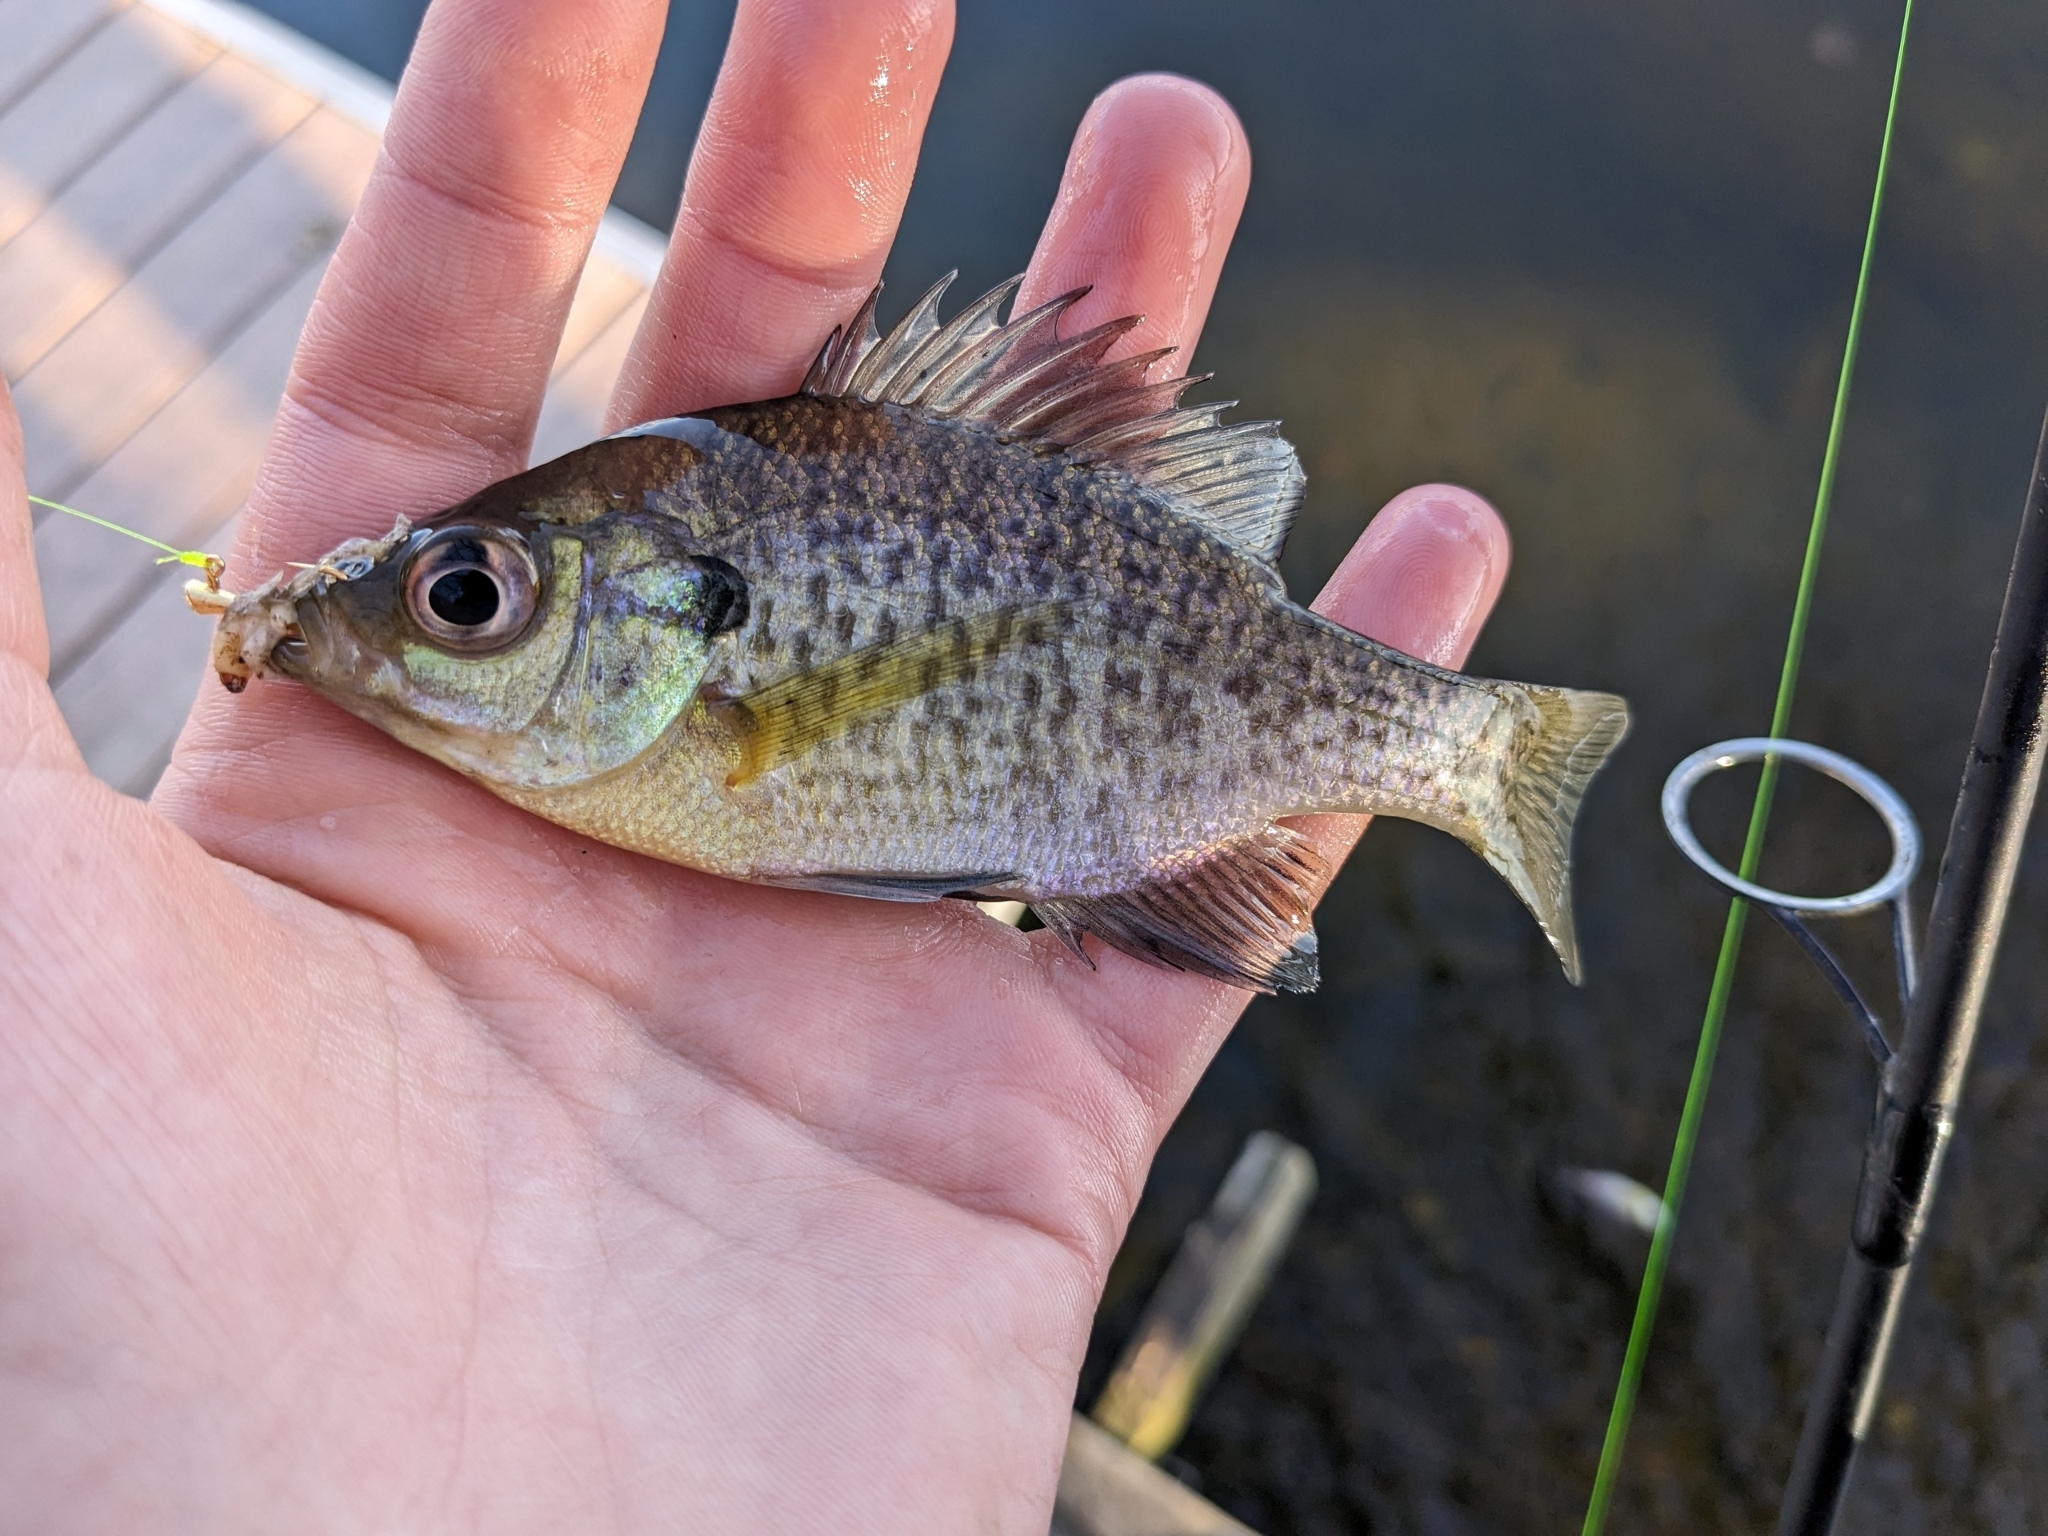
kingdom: Animalia
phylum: Chordata
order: Perciformes
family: Centrarchidae
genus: Lepomis
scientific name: Lepomis macrochirus
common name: Bluegill
